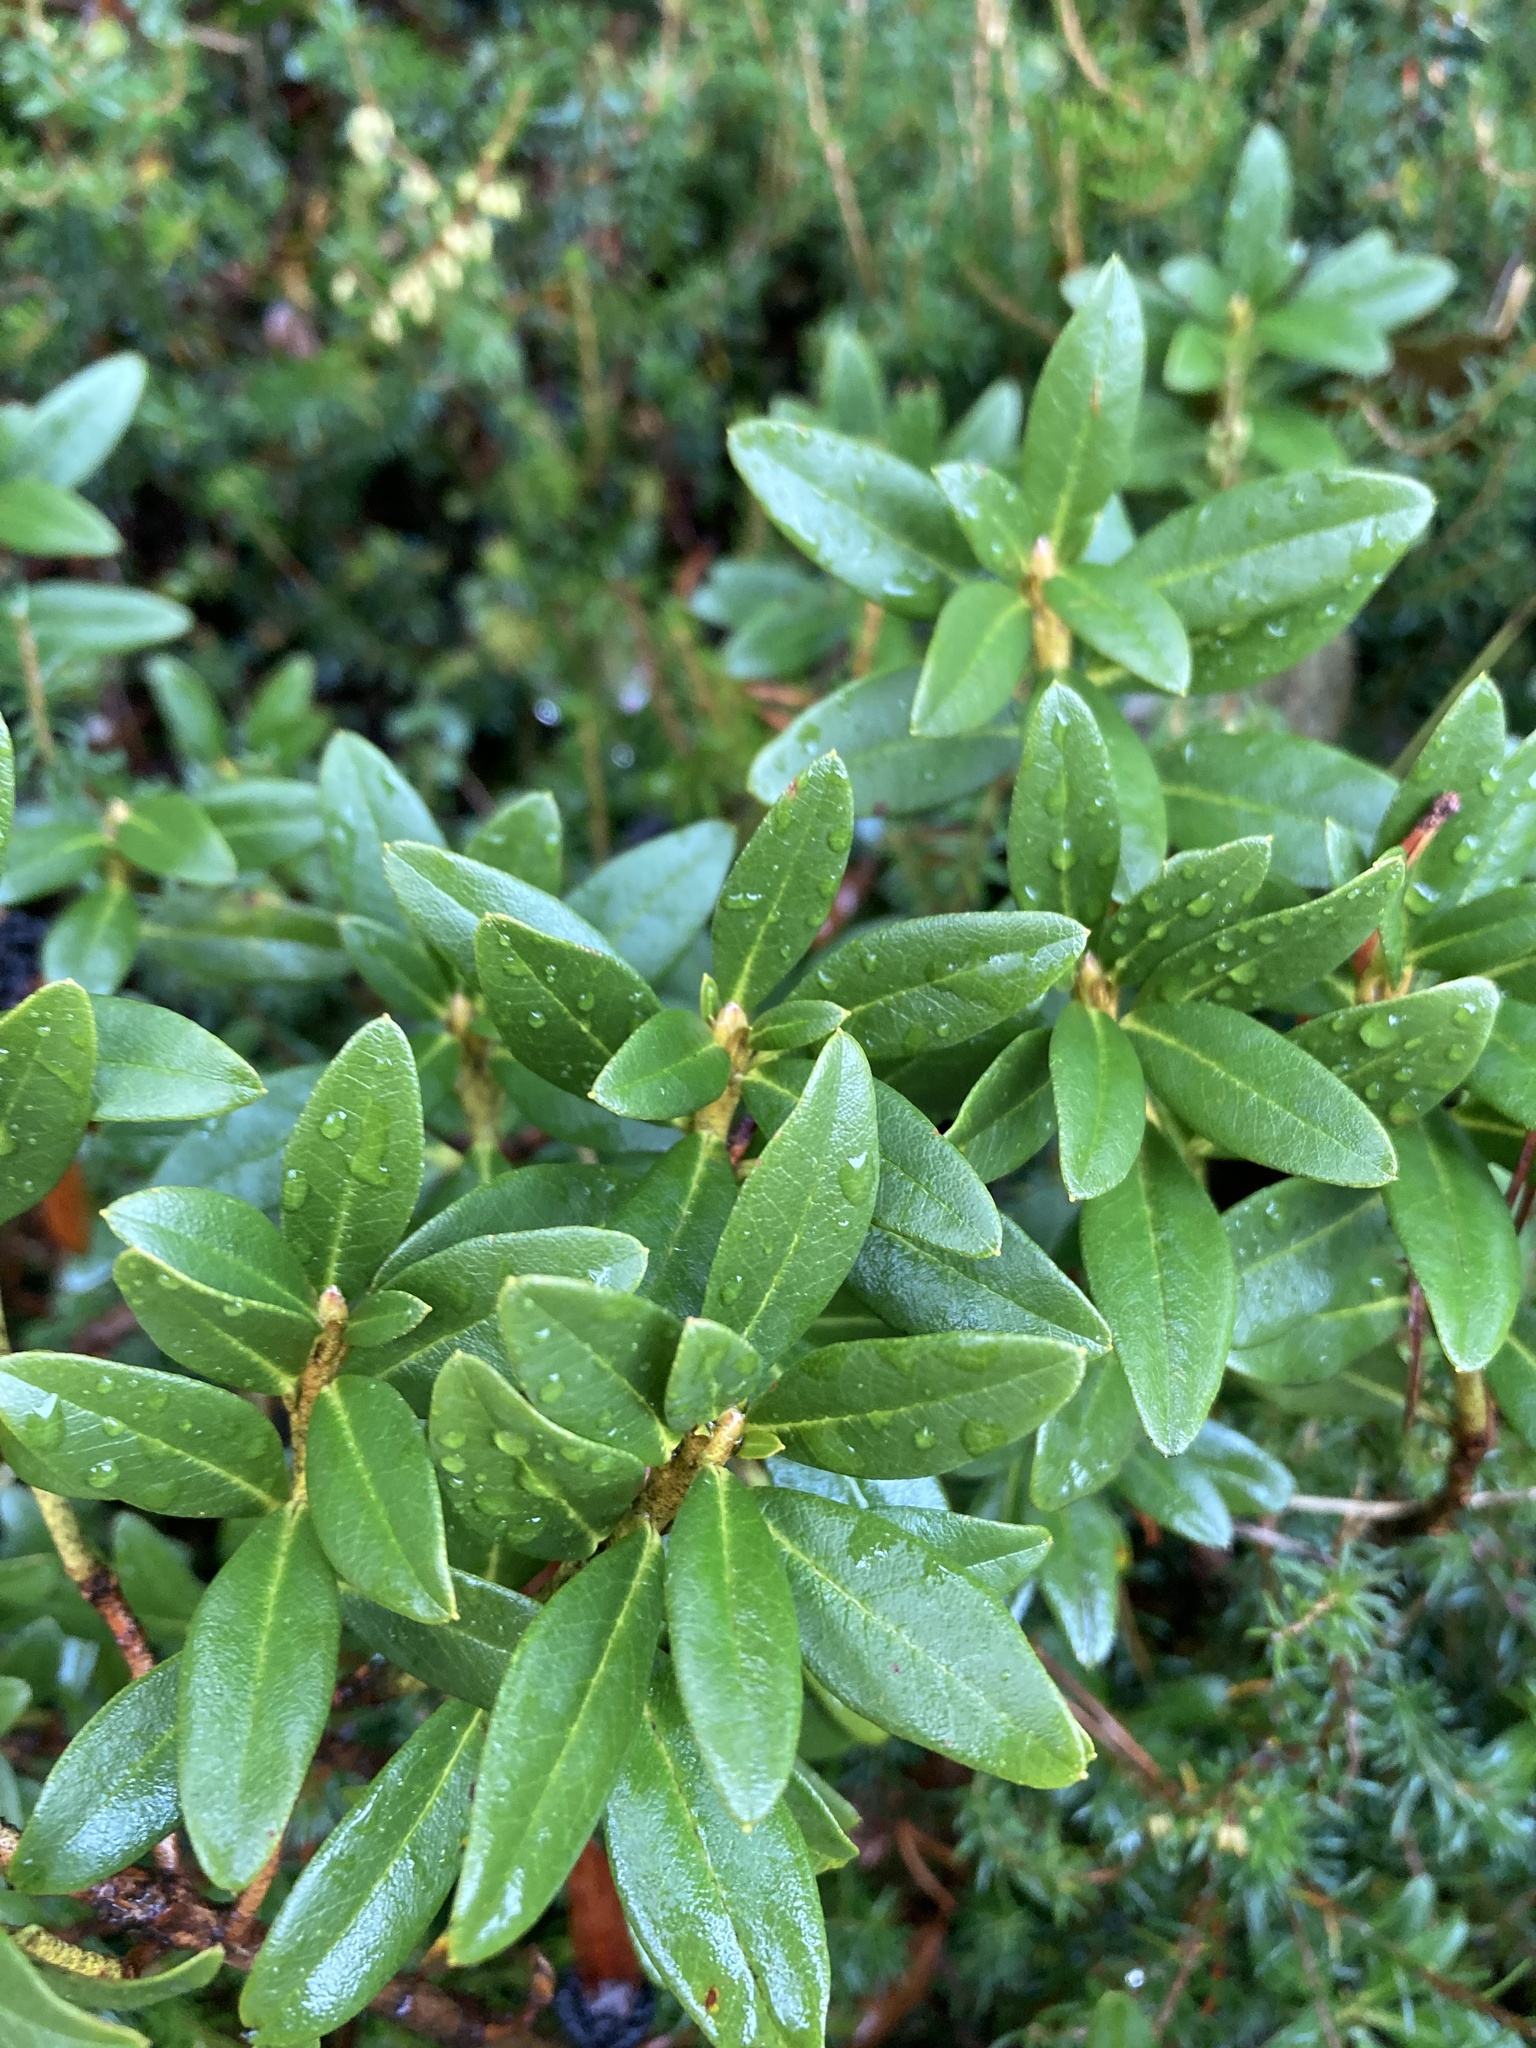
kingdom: Plantae
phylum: Tracheophyta
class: Magnoliopsida
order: Ericales
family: Ericaceae
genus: Rhododendron
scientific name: Rhododendron ferrugineum
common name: Alpenrose
